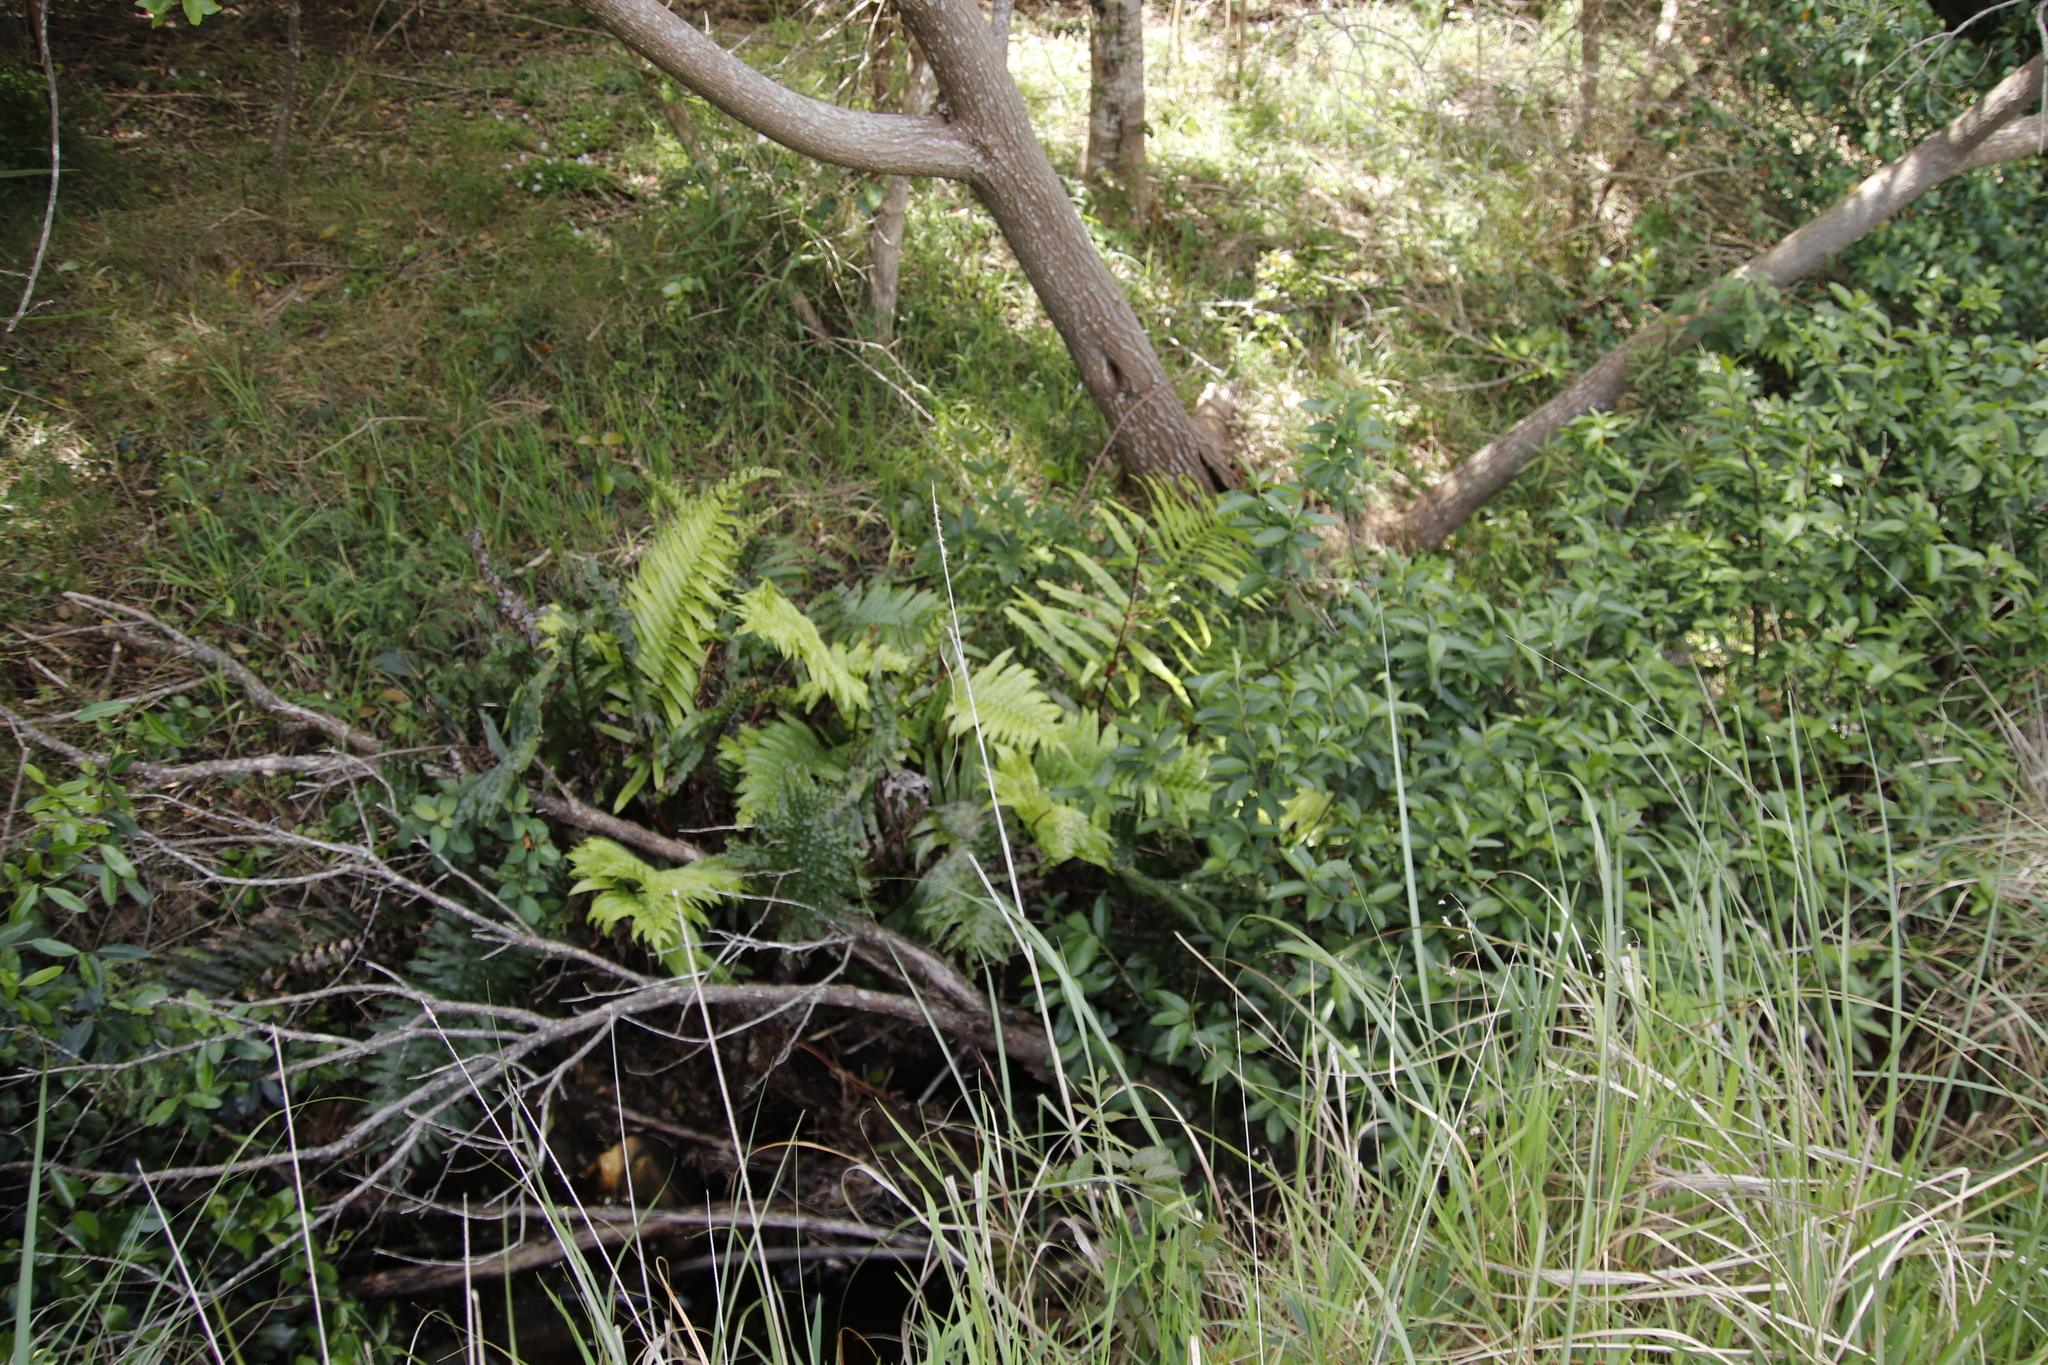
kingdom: Plantae
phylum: Tracheophyta
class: Polypodiopsida
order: Polypodiales
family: Blechnaceae
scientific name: Blechnaceae
